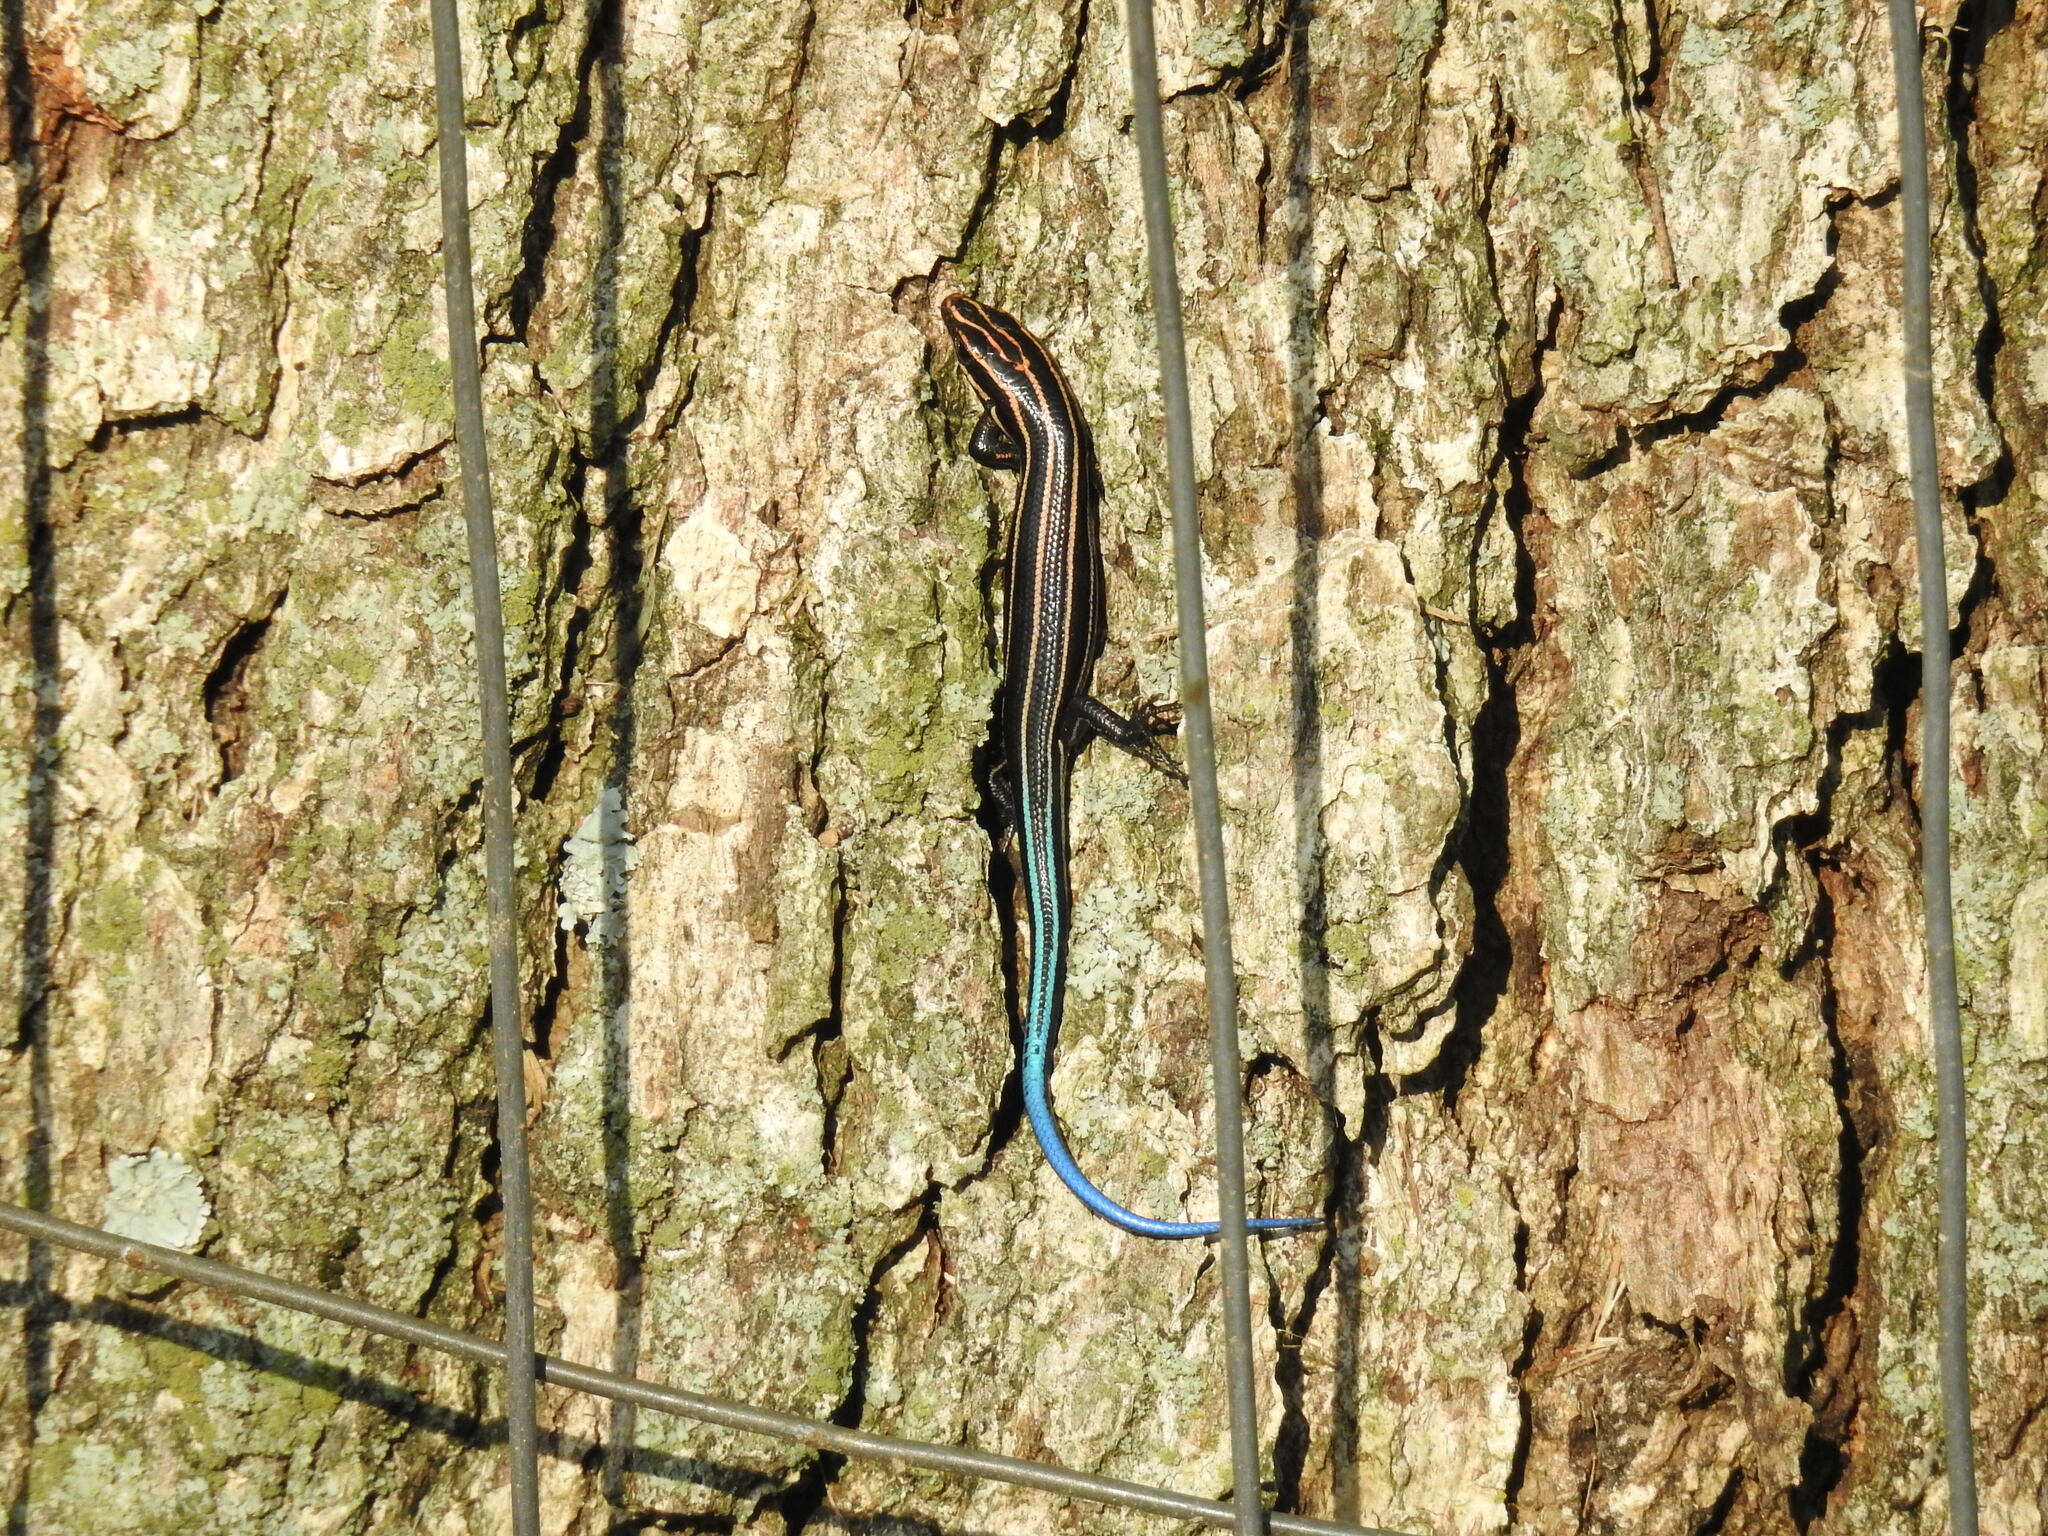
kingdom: Animalia
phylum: Chordata
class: Squamata
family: Scincidae
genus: Plestiodon
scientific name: Plestiodon fasciatus
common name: Five-lined skink
